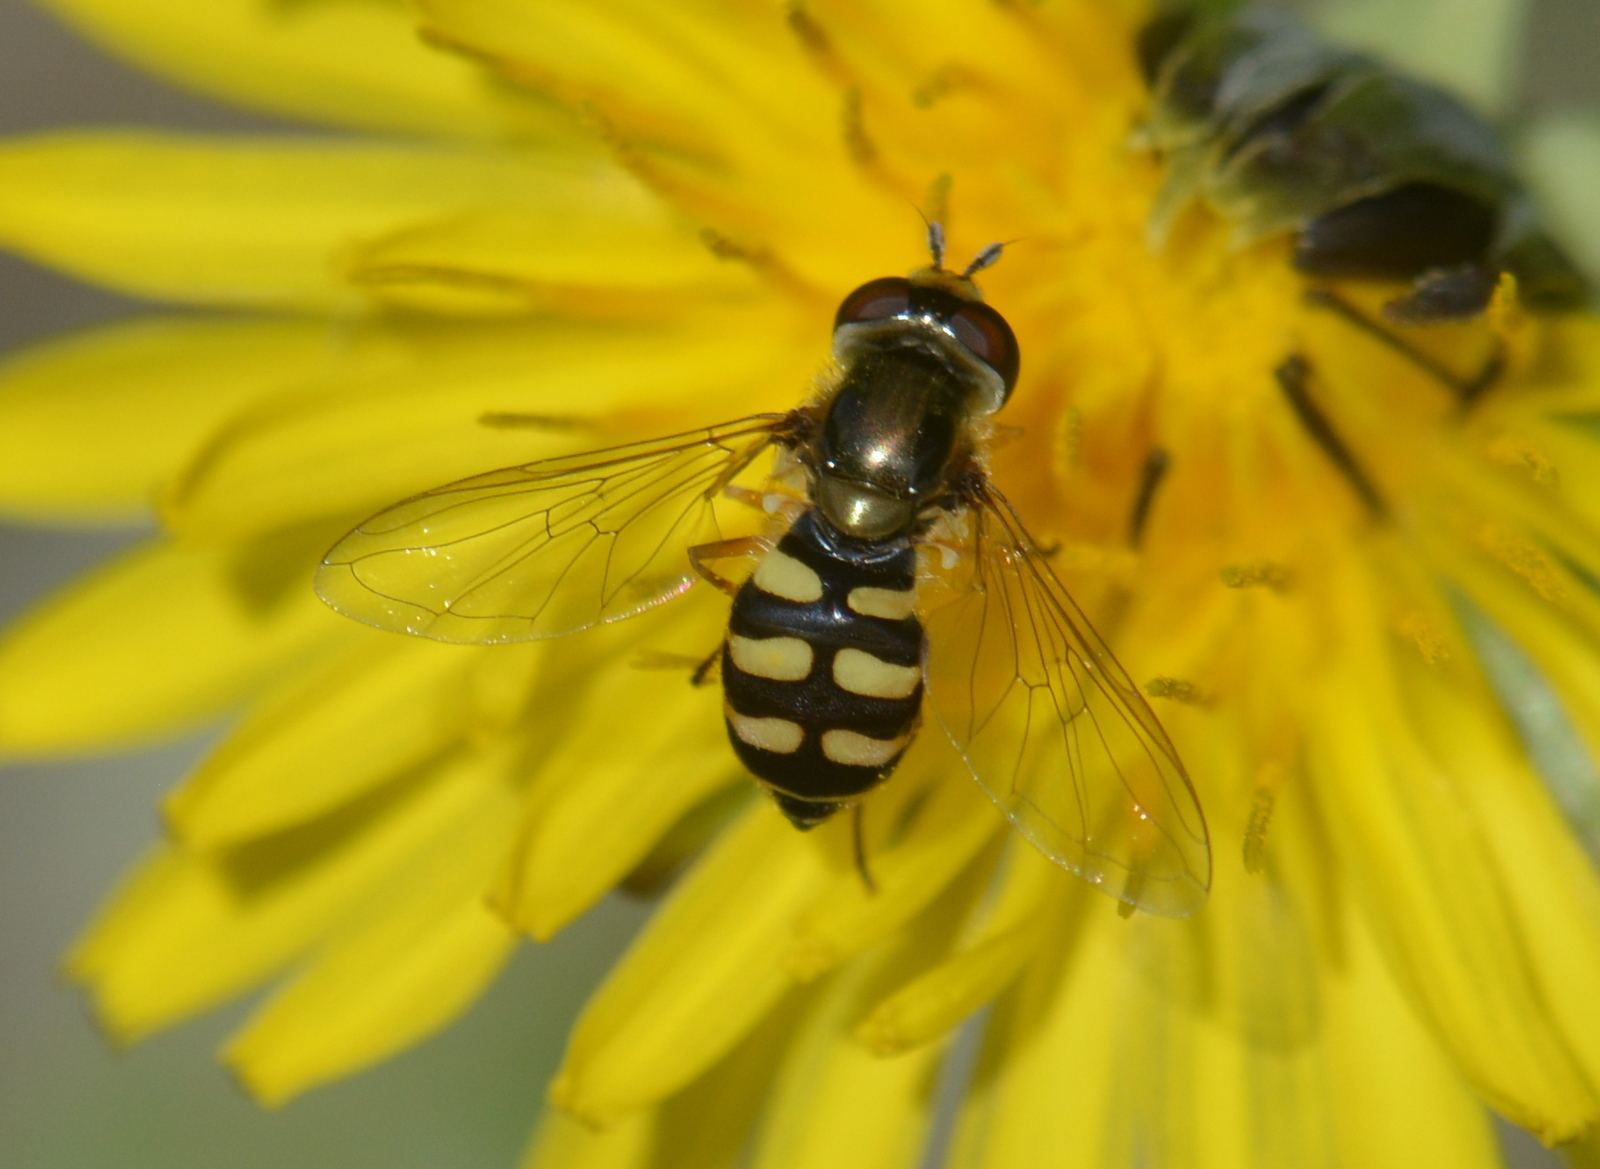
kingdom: Animalia
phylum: Arthropoda
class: Insecta
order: Diptera
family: Syrphidae
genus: Eupeodes
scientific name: Eupeodes corollae
